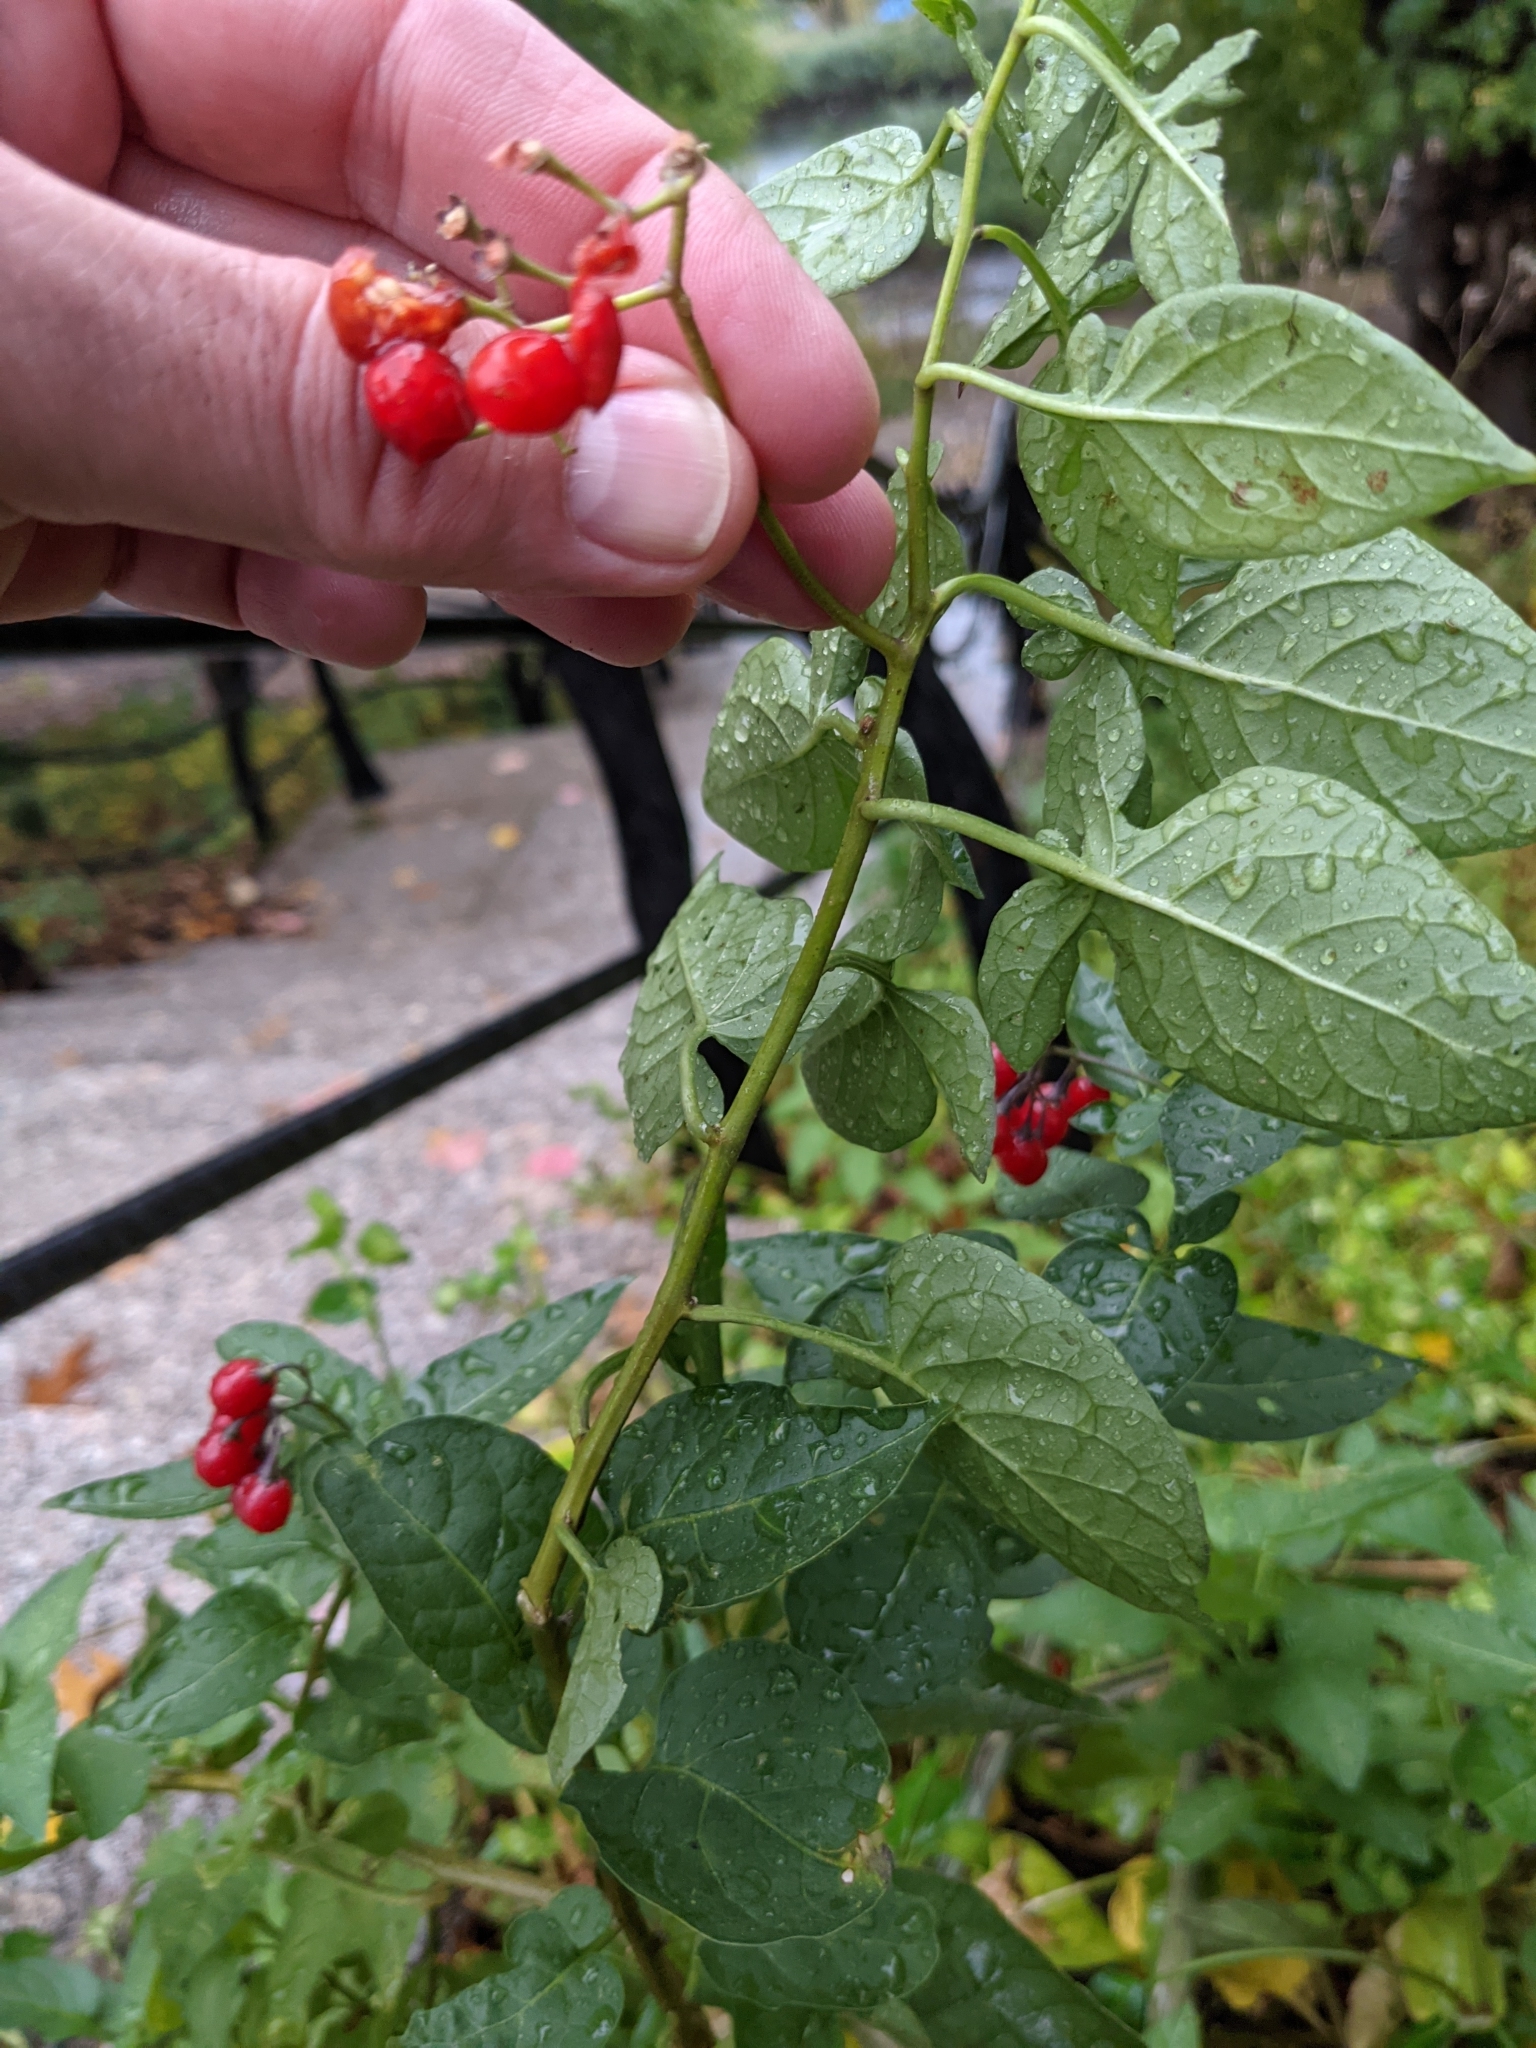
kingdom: Plantae
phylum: Tracheophyta
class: Magnoliopsida
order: Solanales
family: Solanaceae
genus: Solanum
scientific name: Solanum dulcamara
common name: Climbing nightshade
